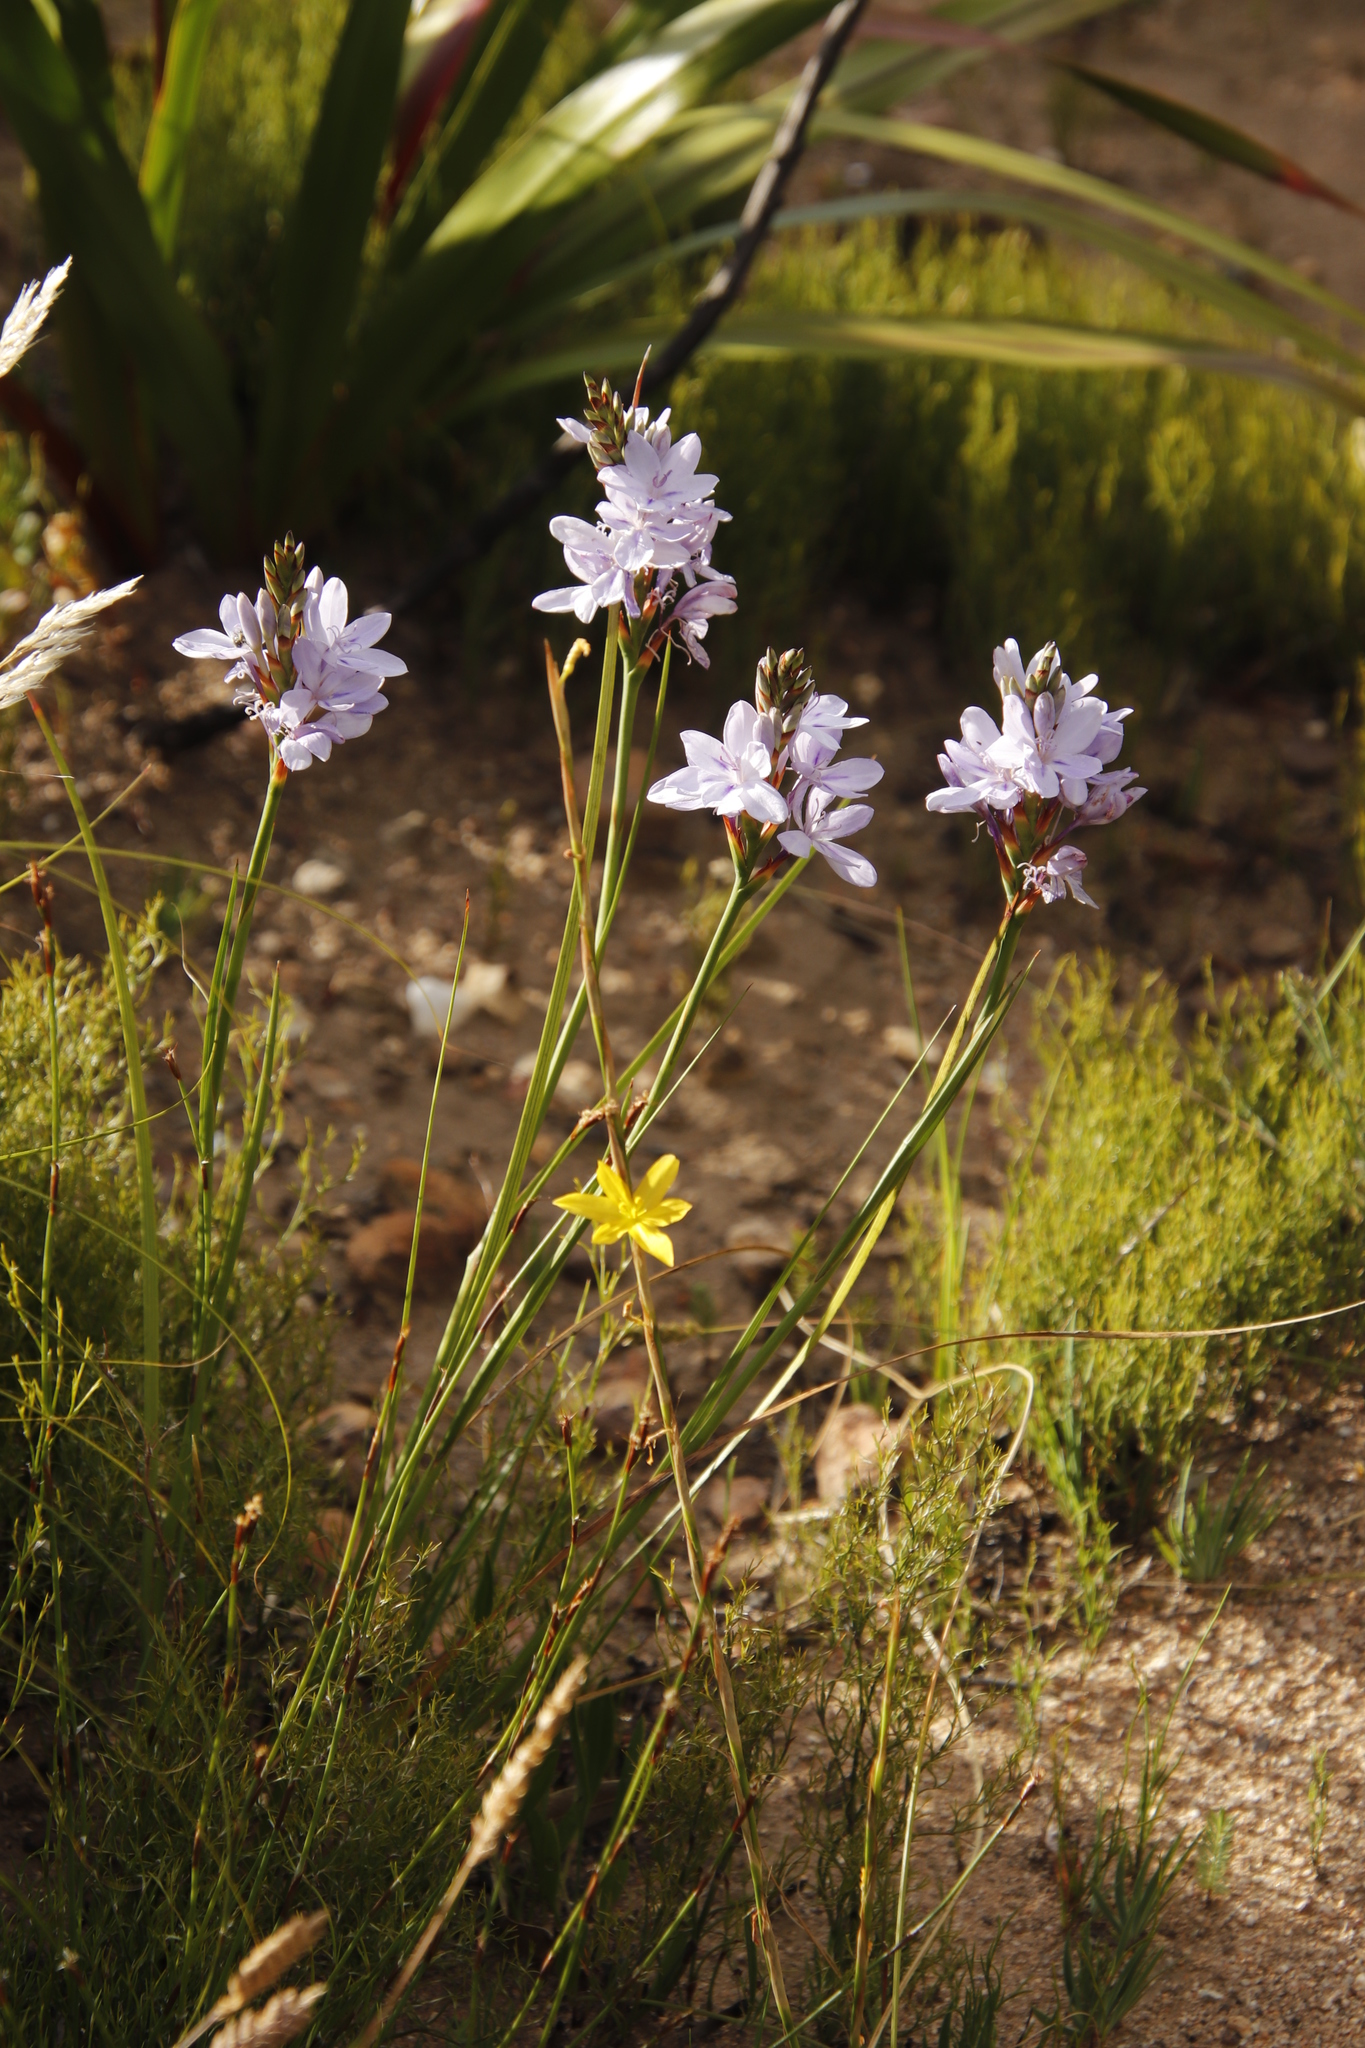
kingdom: Plantae
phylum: Tracheophyta
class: Liliopsida
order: Asparagales
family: Iridaceae
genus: Thereianthus
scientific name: Thereianthus spicatus
